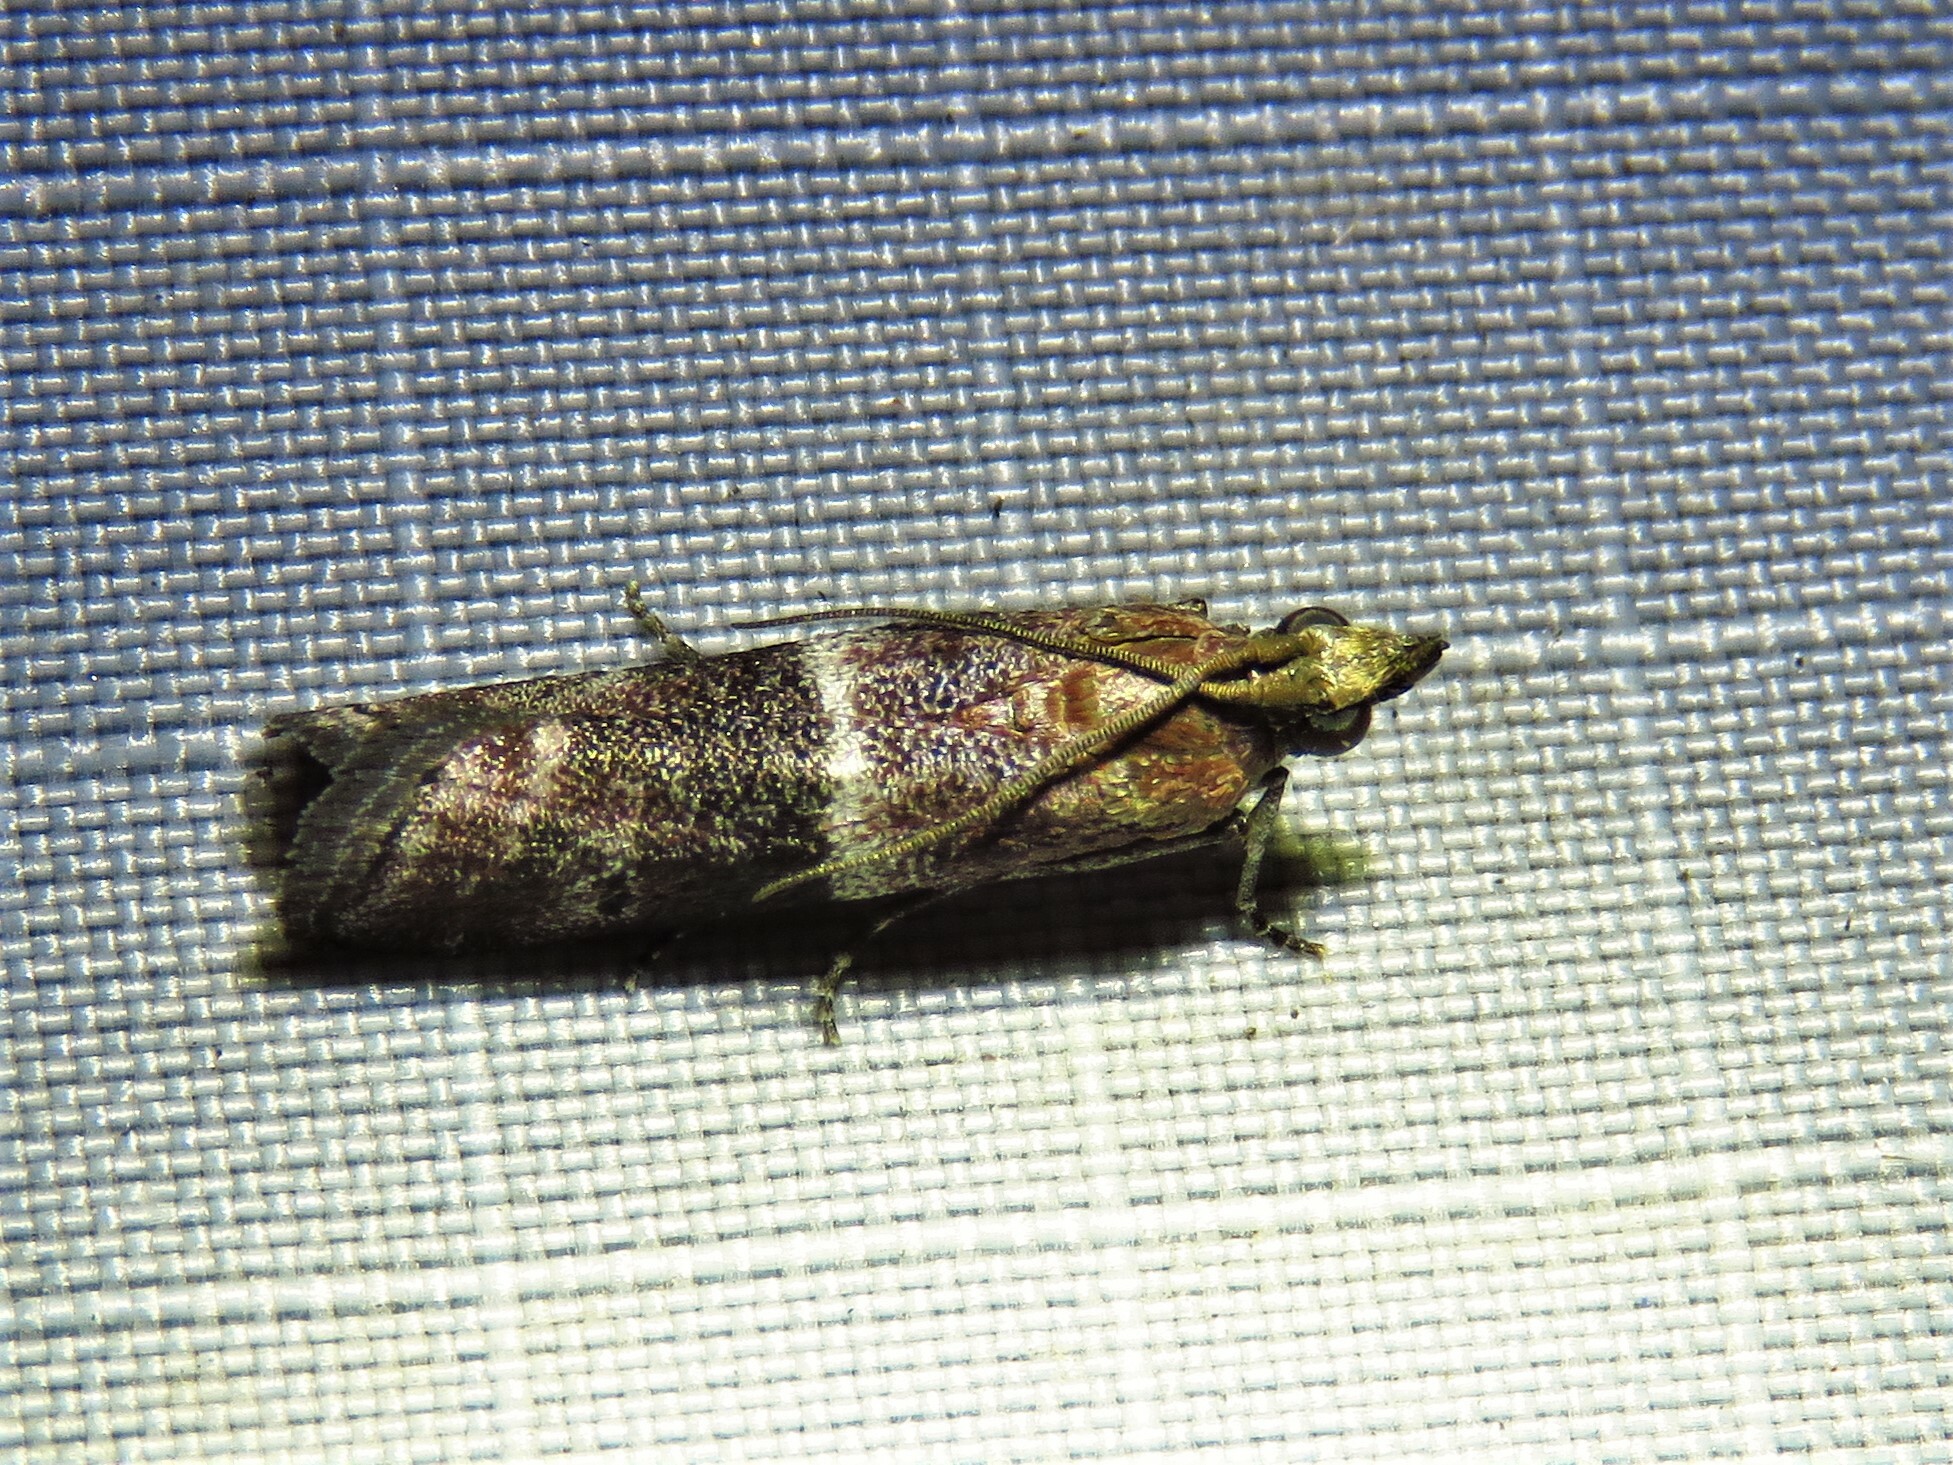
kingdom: Animalia
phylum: Arthropoda
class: Insecta
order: Lepidoptera
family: Pyralidae
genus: Moodna
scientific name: Moodna ostrinella
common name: Darker moodna moth
